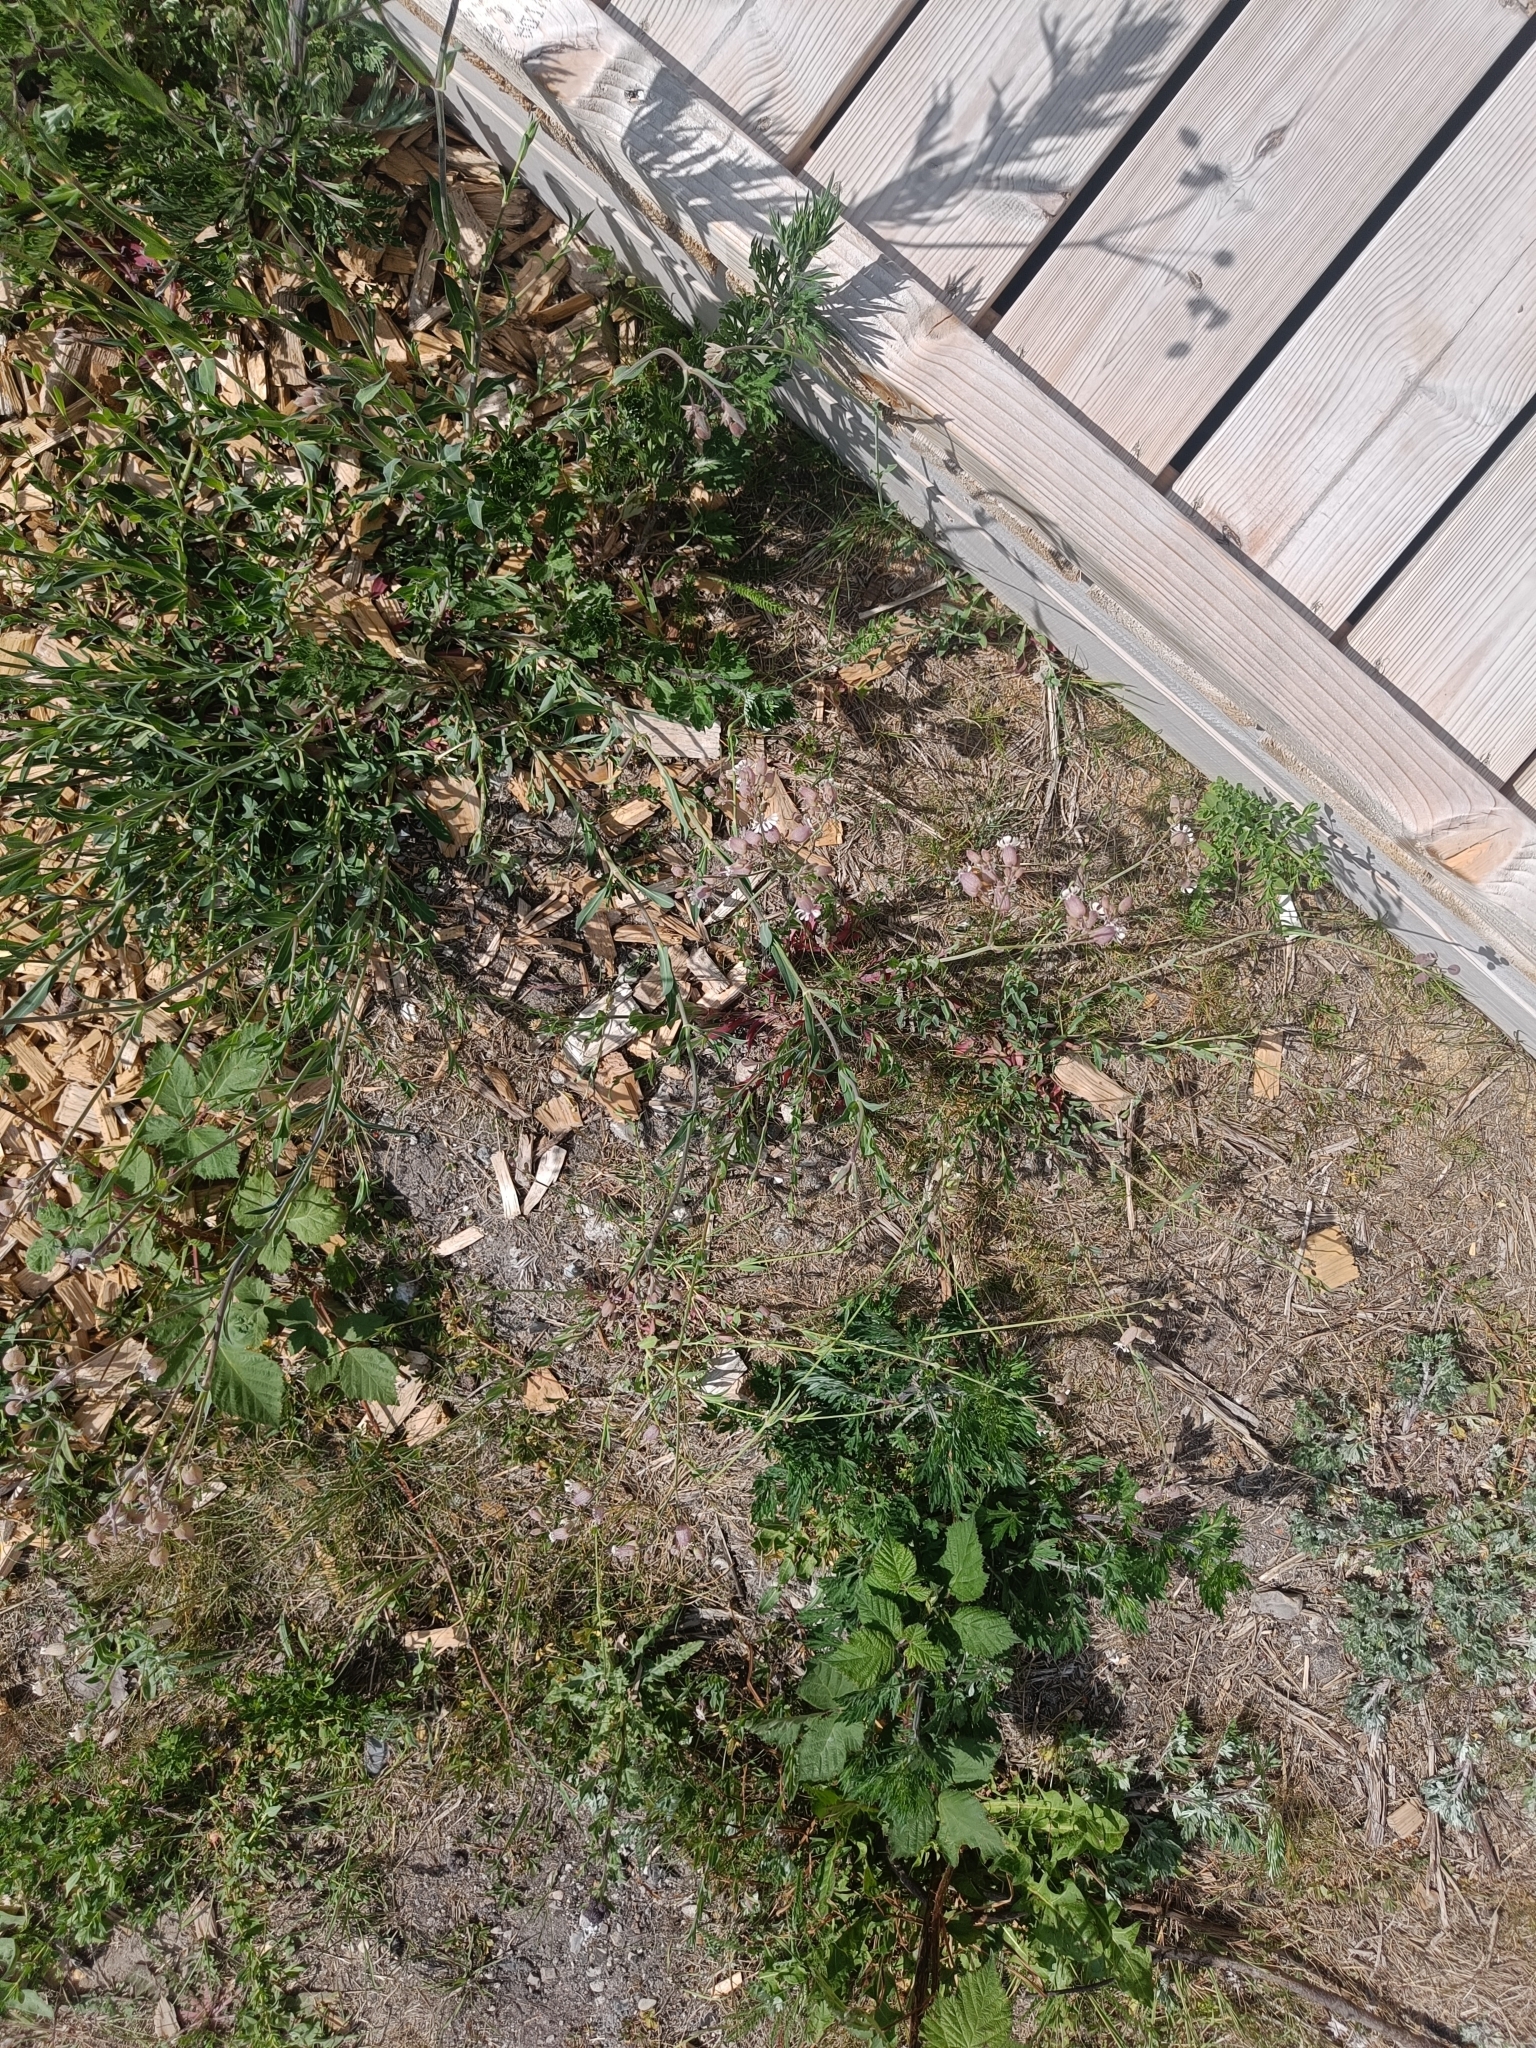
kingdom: Plantae
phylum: Tracheophyta
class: Magnoliopsida
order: Caryophyllales
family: Caryophyllaceae
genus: Silene
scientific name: Silene vulgaris
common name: Bladder campion
